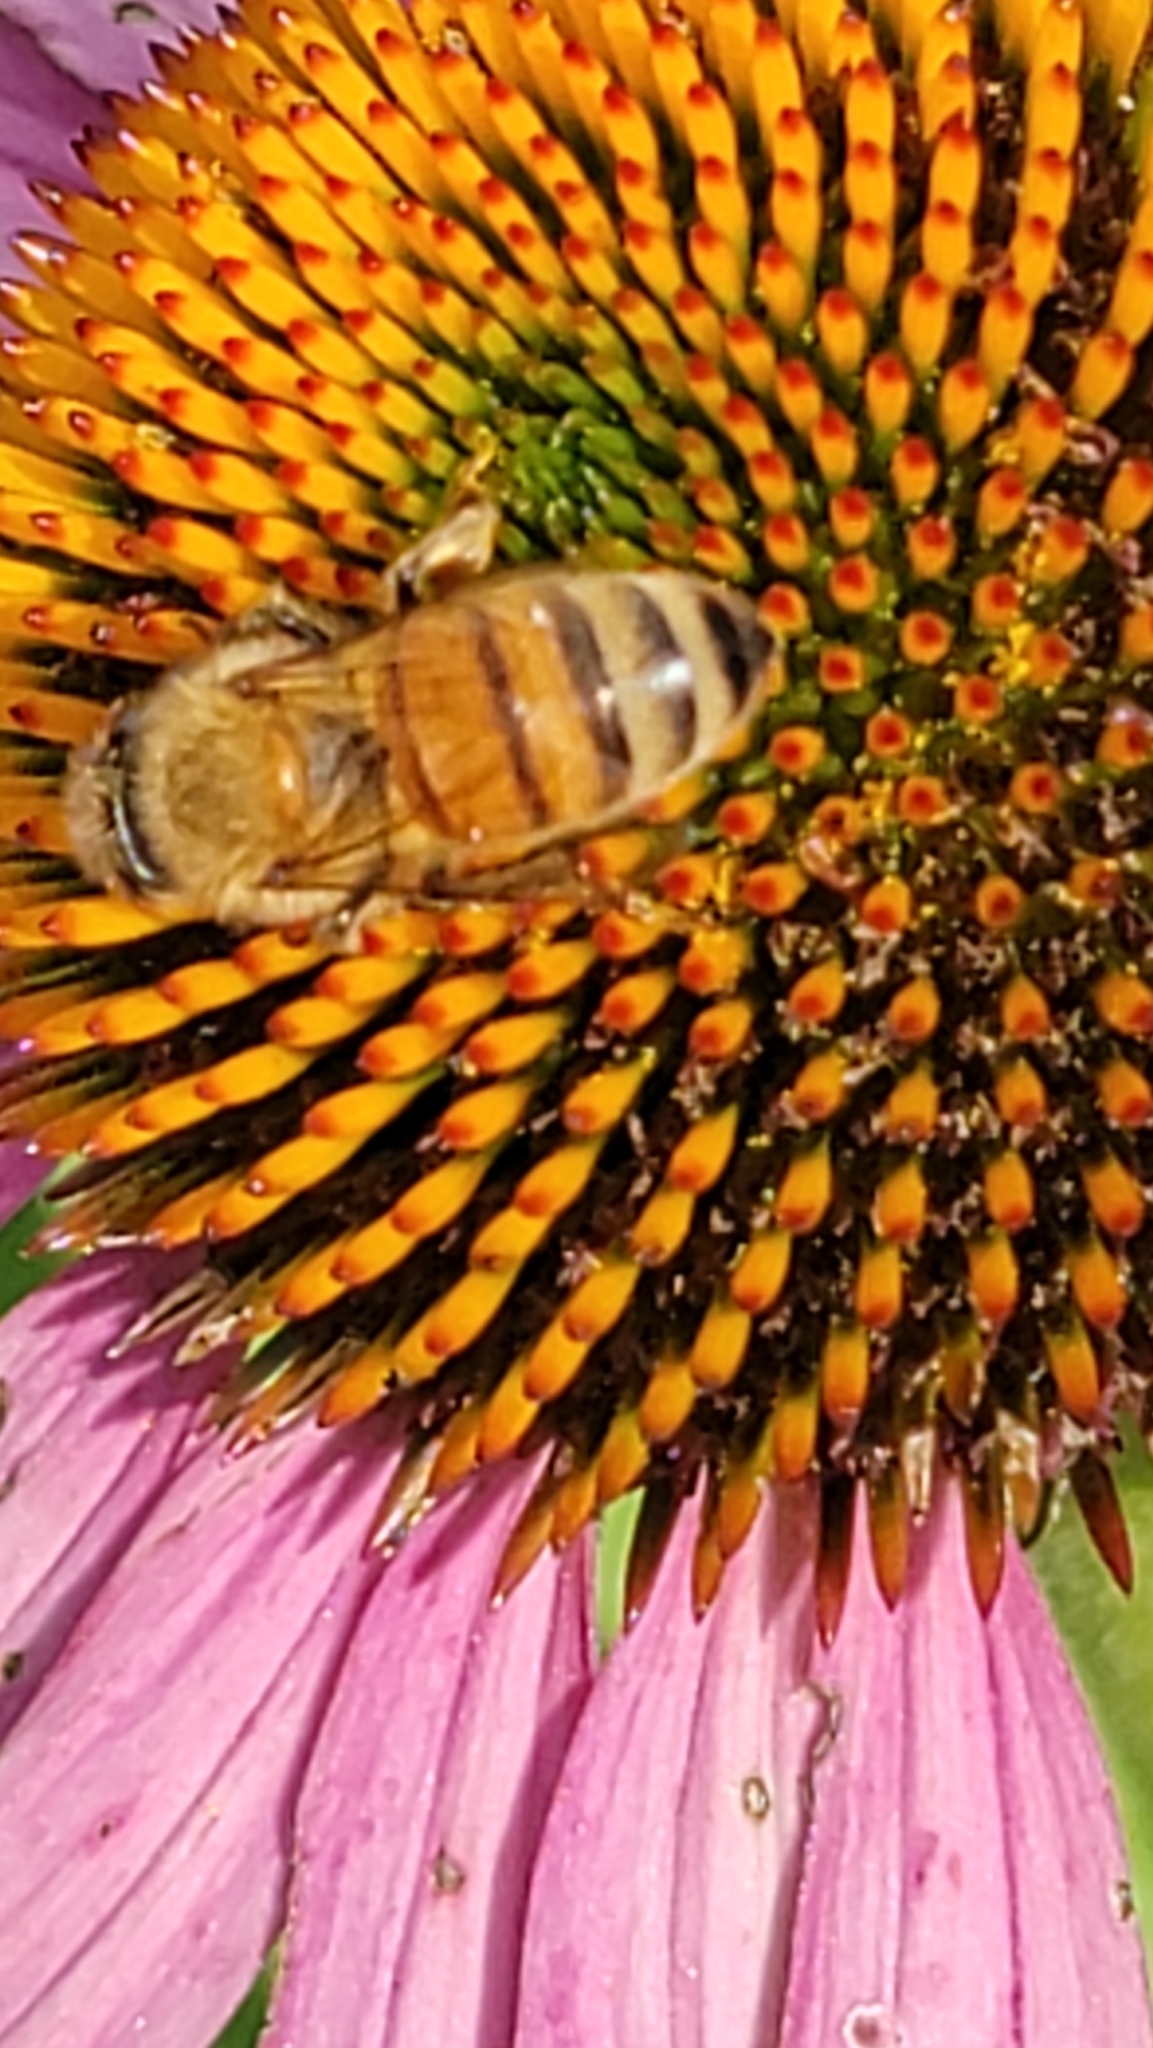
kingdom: Animalia
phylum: Arthropoda
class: Insecta
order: Hymenoptera
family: Apidae
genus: Apis
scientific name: Apis mellifera
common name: Honey bee
